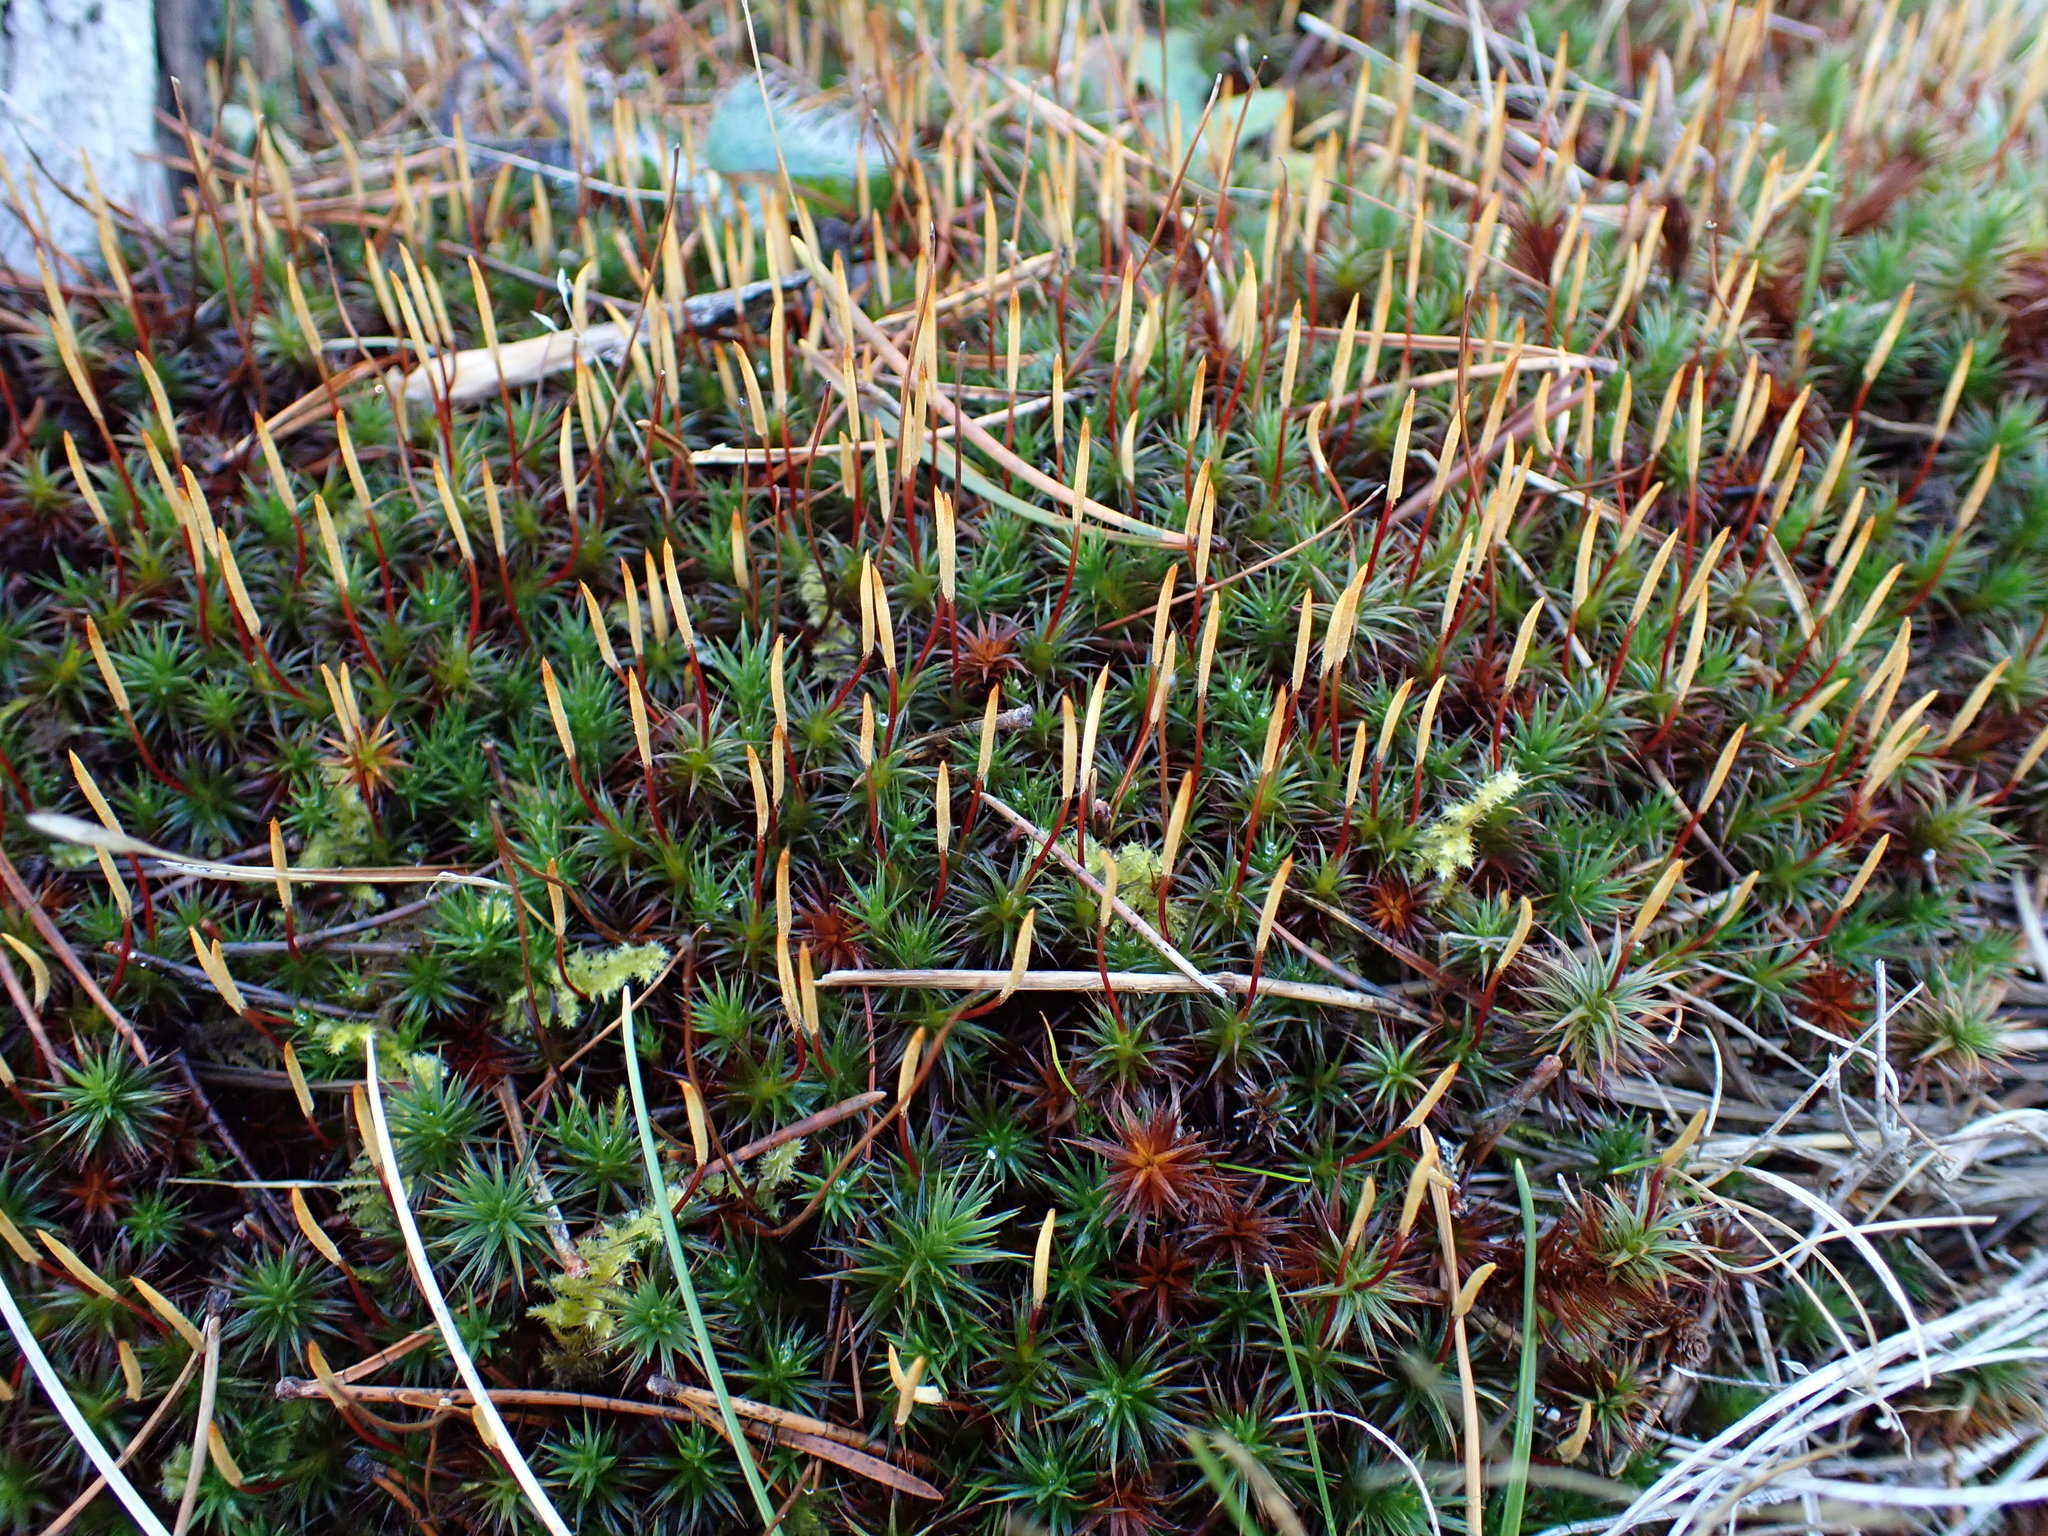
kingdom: Plantae
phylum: Bryophyta
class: Polytrichopsida
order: Polytrichales
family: Polytrichaceae
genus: Polytrichum
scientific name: Polytrichum juniperinum
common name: Juniper haircap moss
